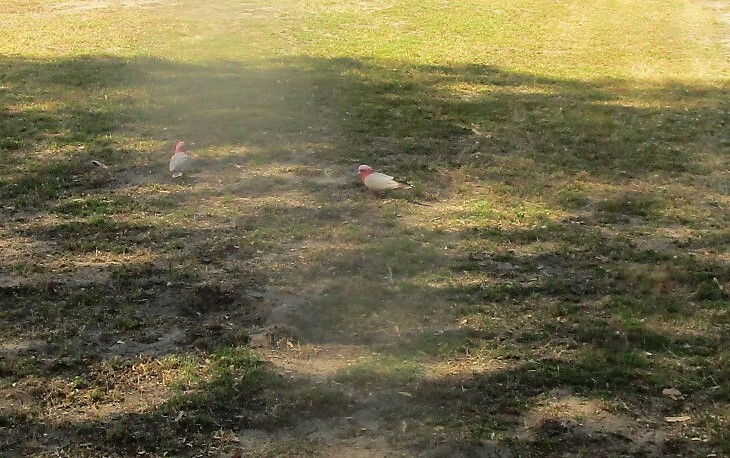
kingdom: Animalia
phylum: Chordata
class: Aves
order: Psittaciformes
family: Psittacidae
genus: Eolophus
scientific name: Eolophus roseicapilla
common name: Galah
